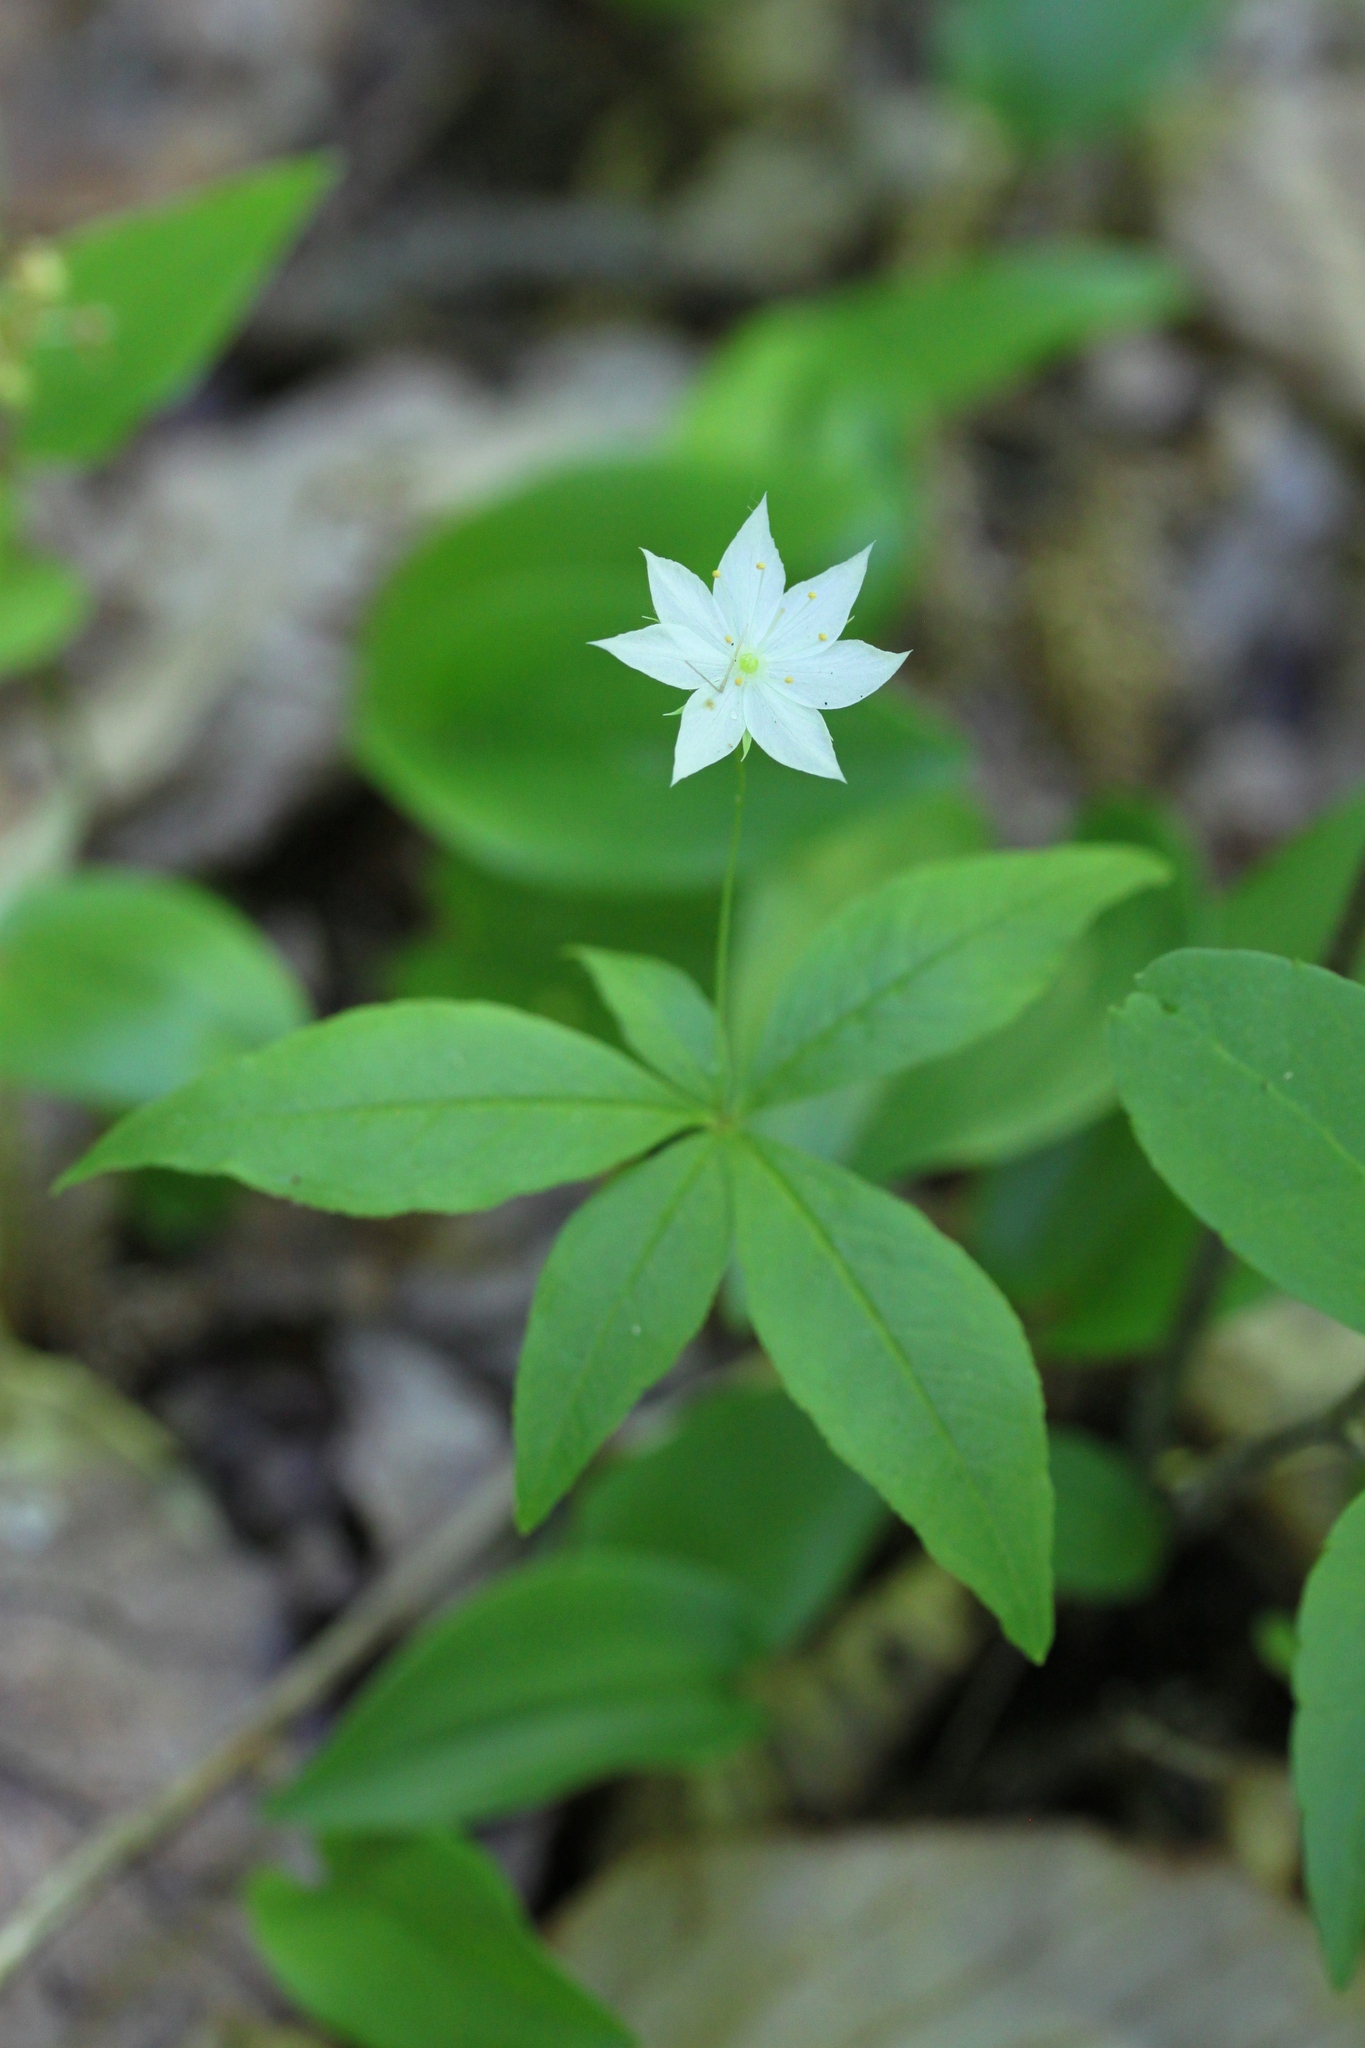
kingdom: Plantae
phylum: Tracheophyta
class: Magnoliopsida
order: Ericales
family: Primulaceae
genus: Lysimachia
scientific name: Lysimachia borealis
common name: American starflower
